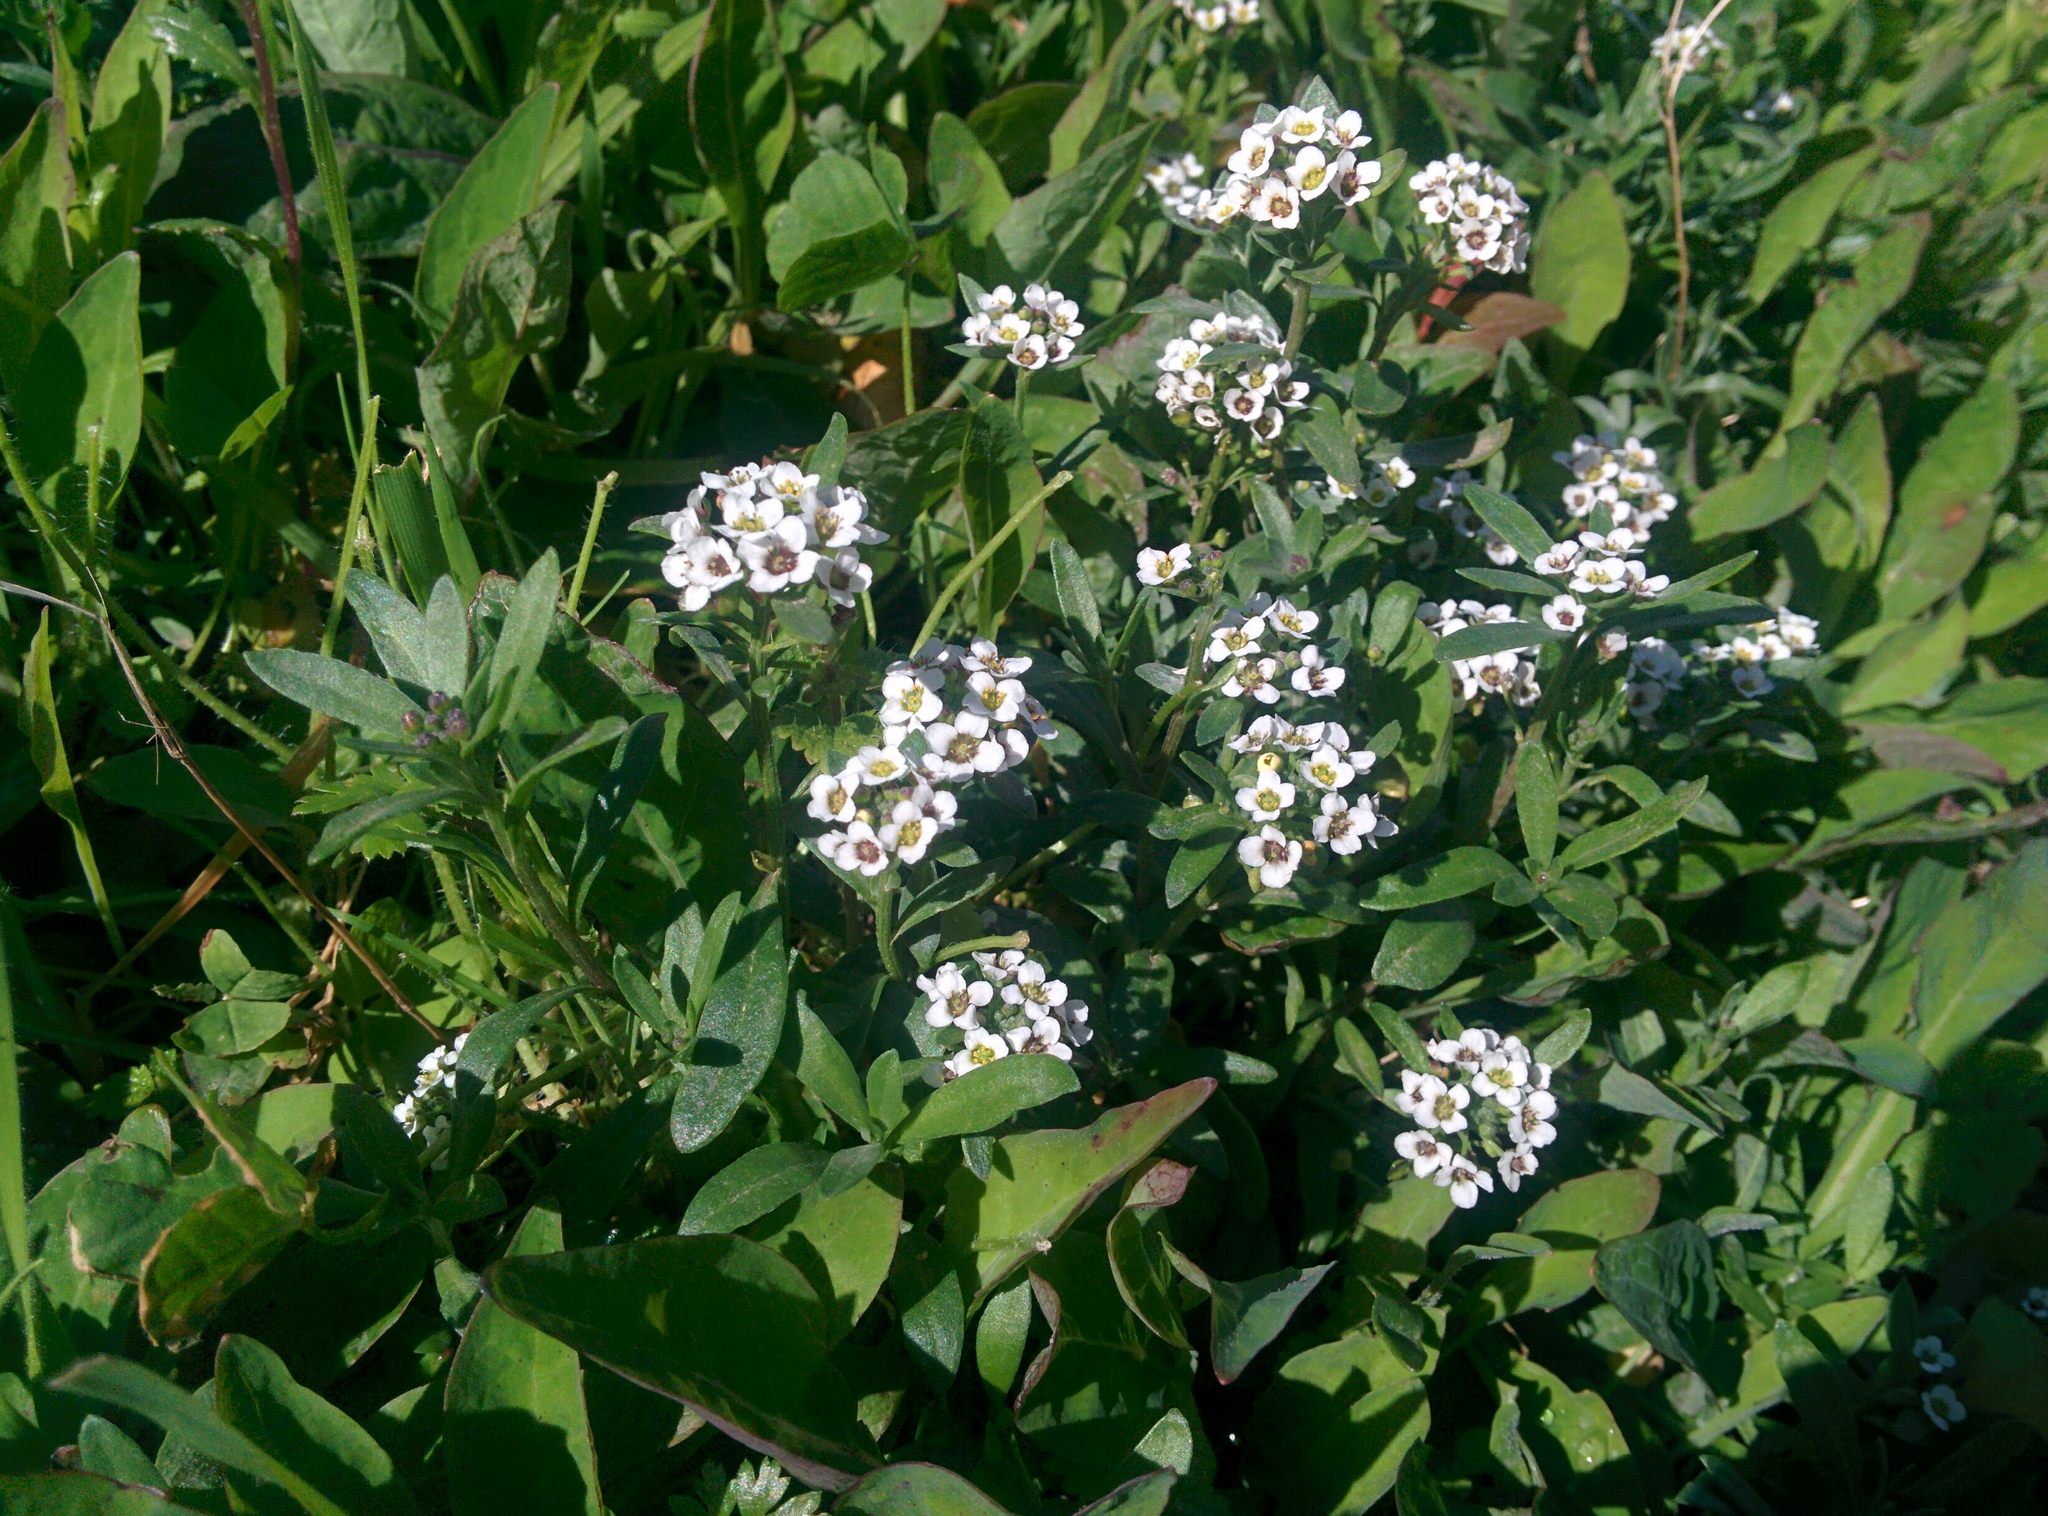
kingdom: Plantae
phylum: Tracheophyta
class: Magnoliopsida
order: Brassicales
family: Brassicaceae
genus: Lobularia
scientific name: Lobularia maritima
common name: Sweet alison
